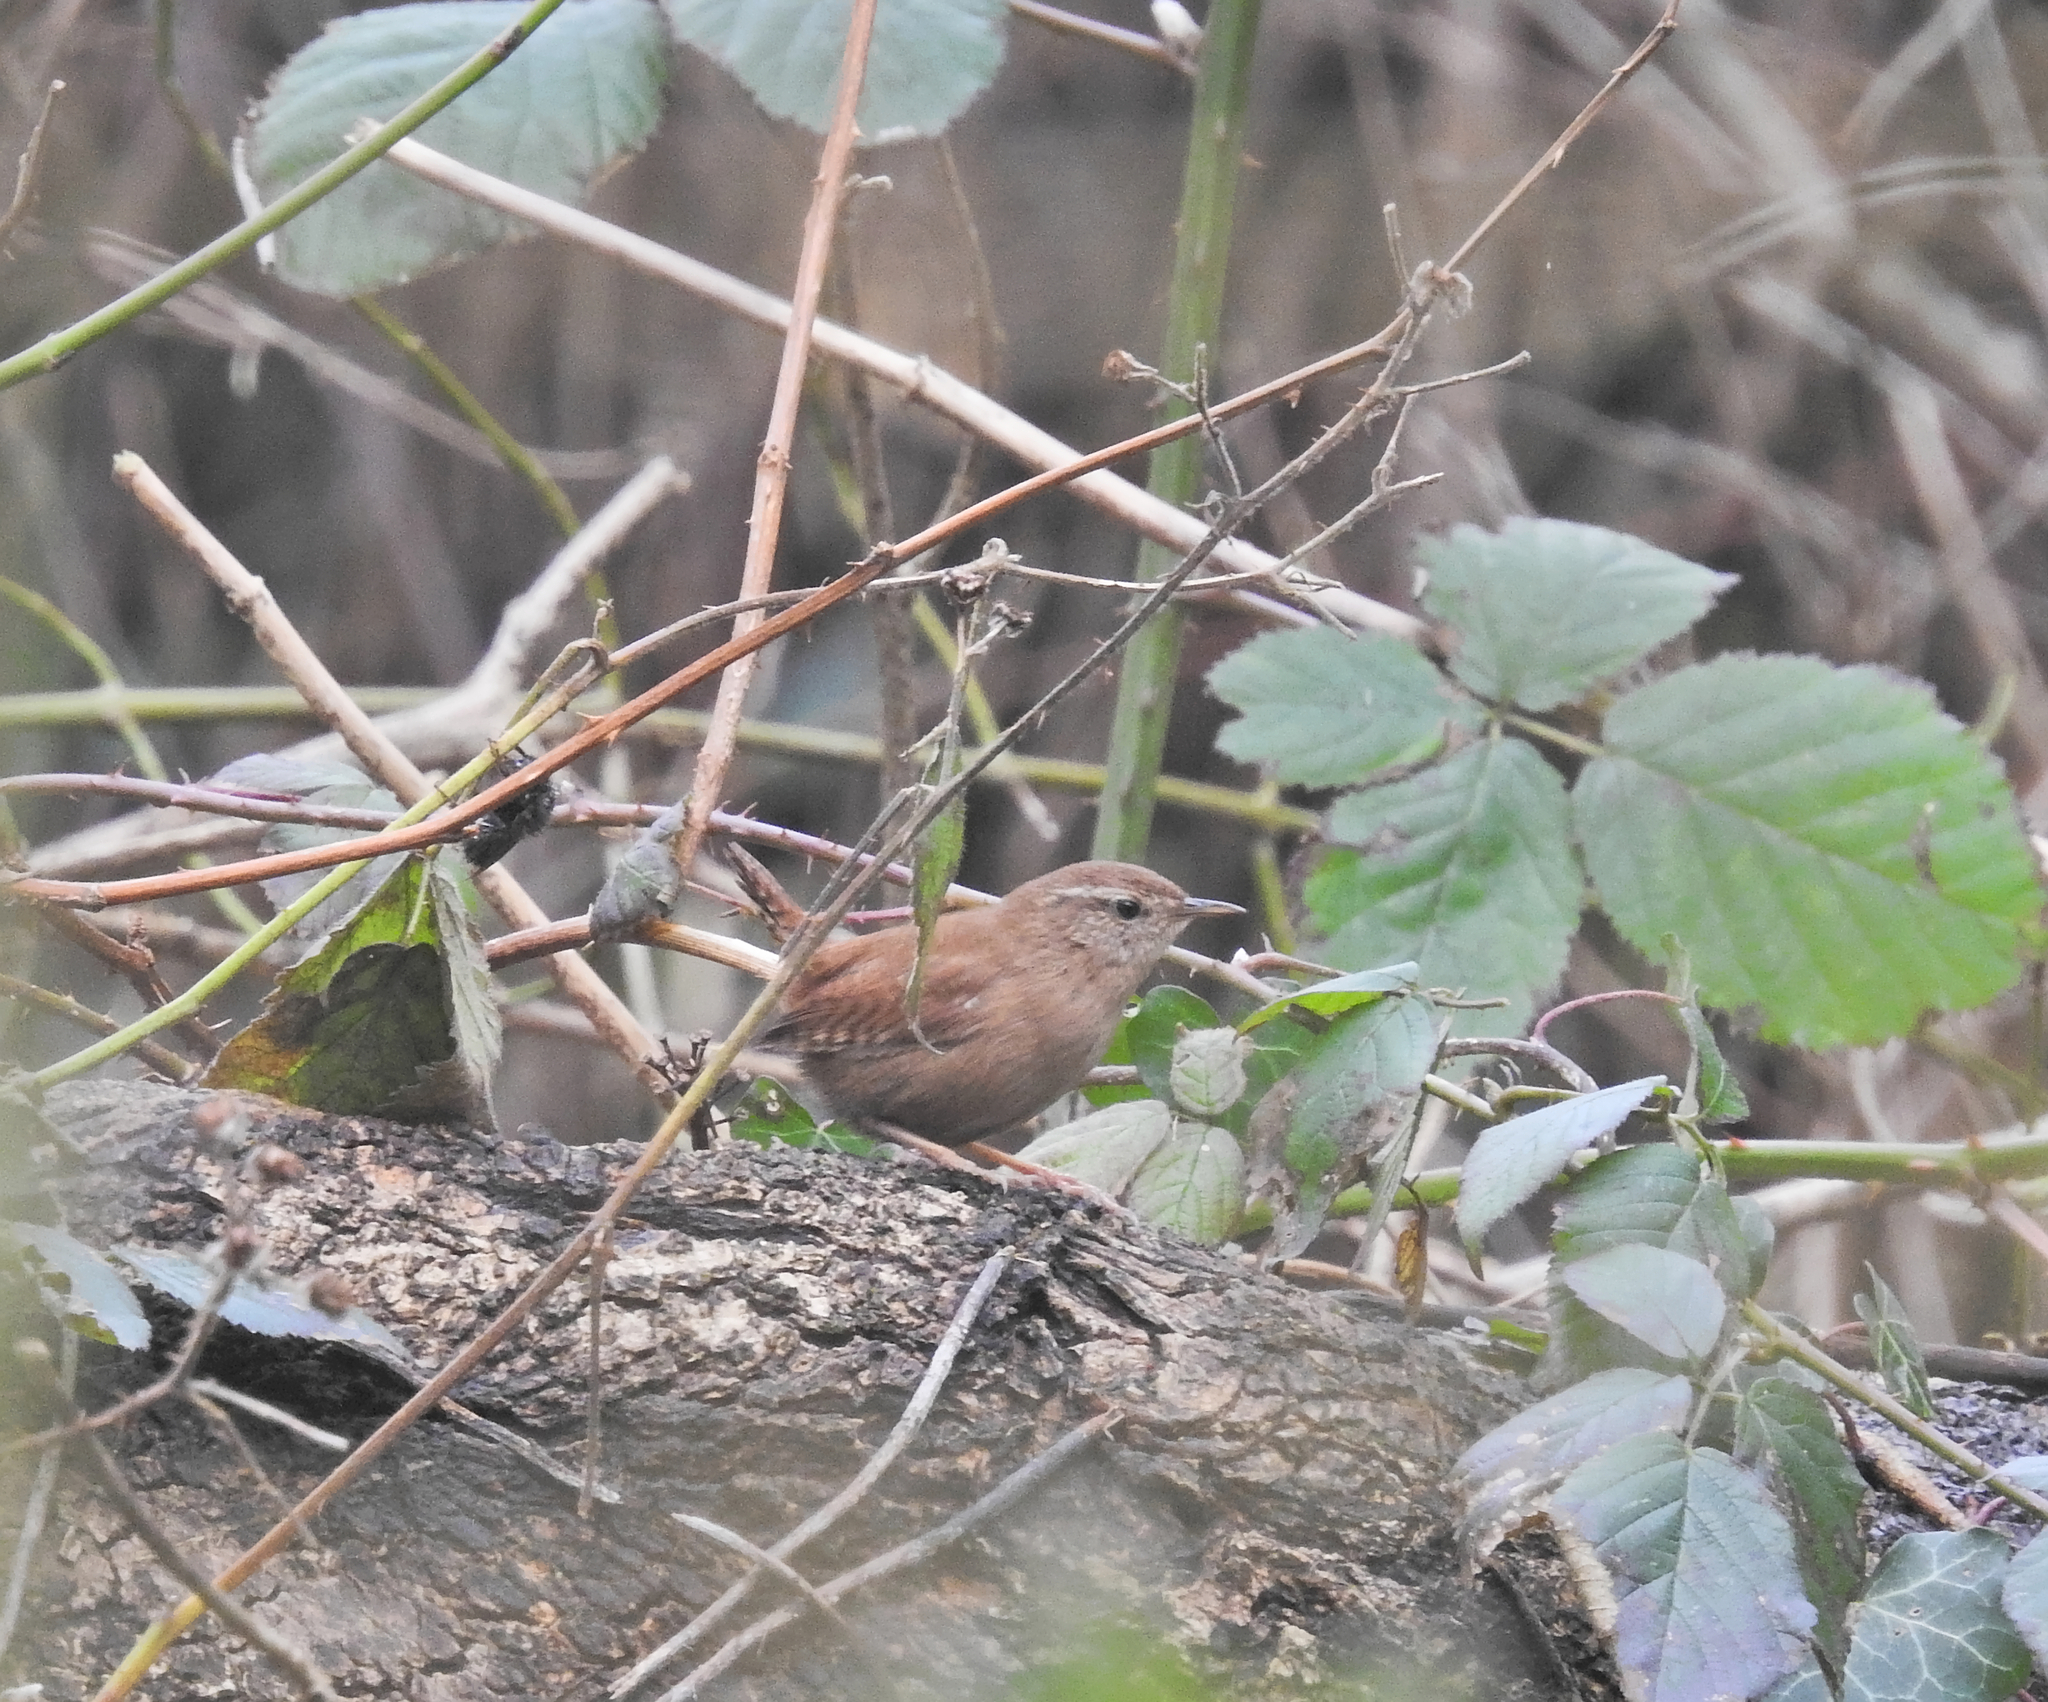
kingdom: Animalia
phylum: Chordata
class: Aves
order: Passeriformes
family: Troglodytidae
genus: Troglodytes
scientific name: Troglodytes troglodytes
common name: Eurasian wren
